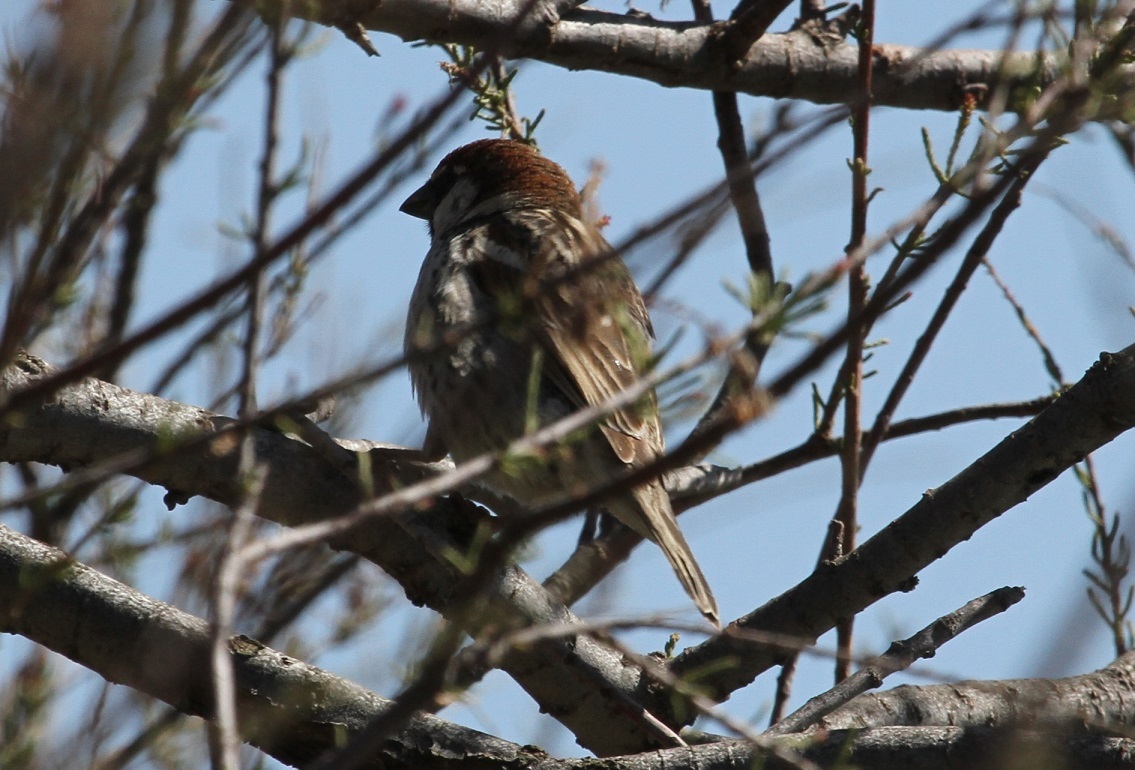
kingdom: Animalia
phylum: Chordata
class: Aves
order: Passeriformes
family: Passeridae
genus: Passer
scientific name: Passer hispaniolensis
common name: Spanish sparrow
